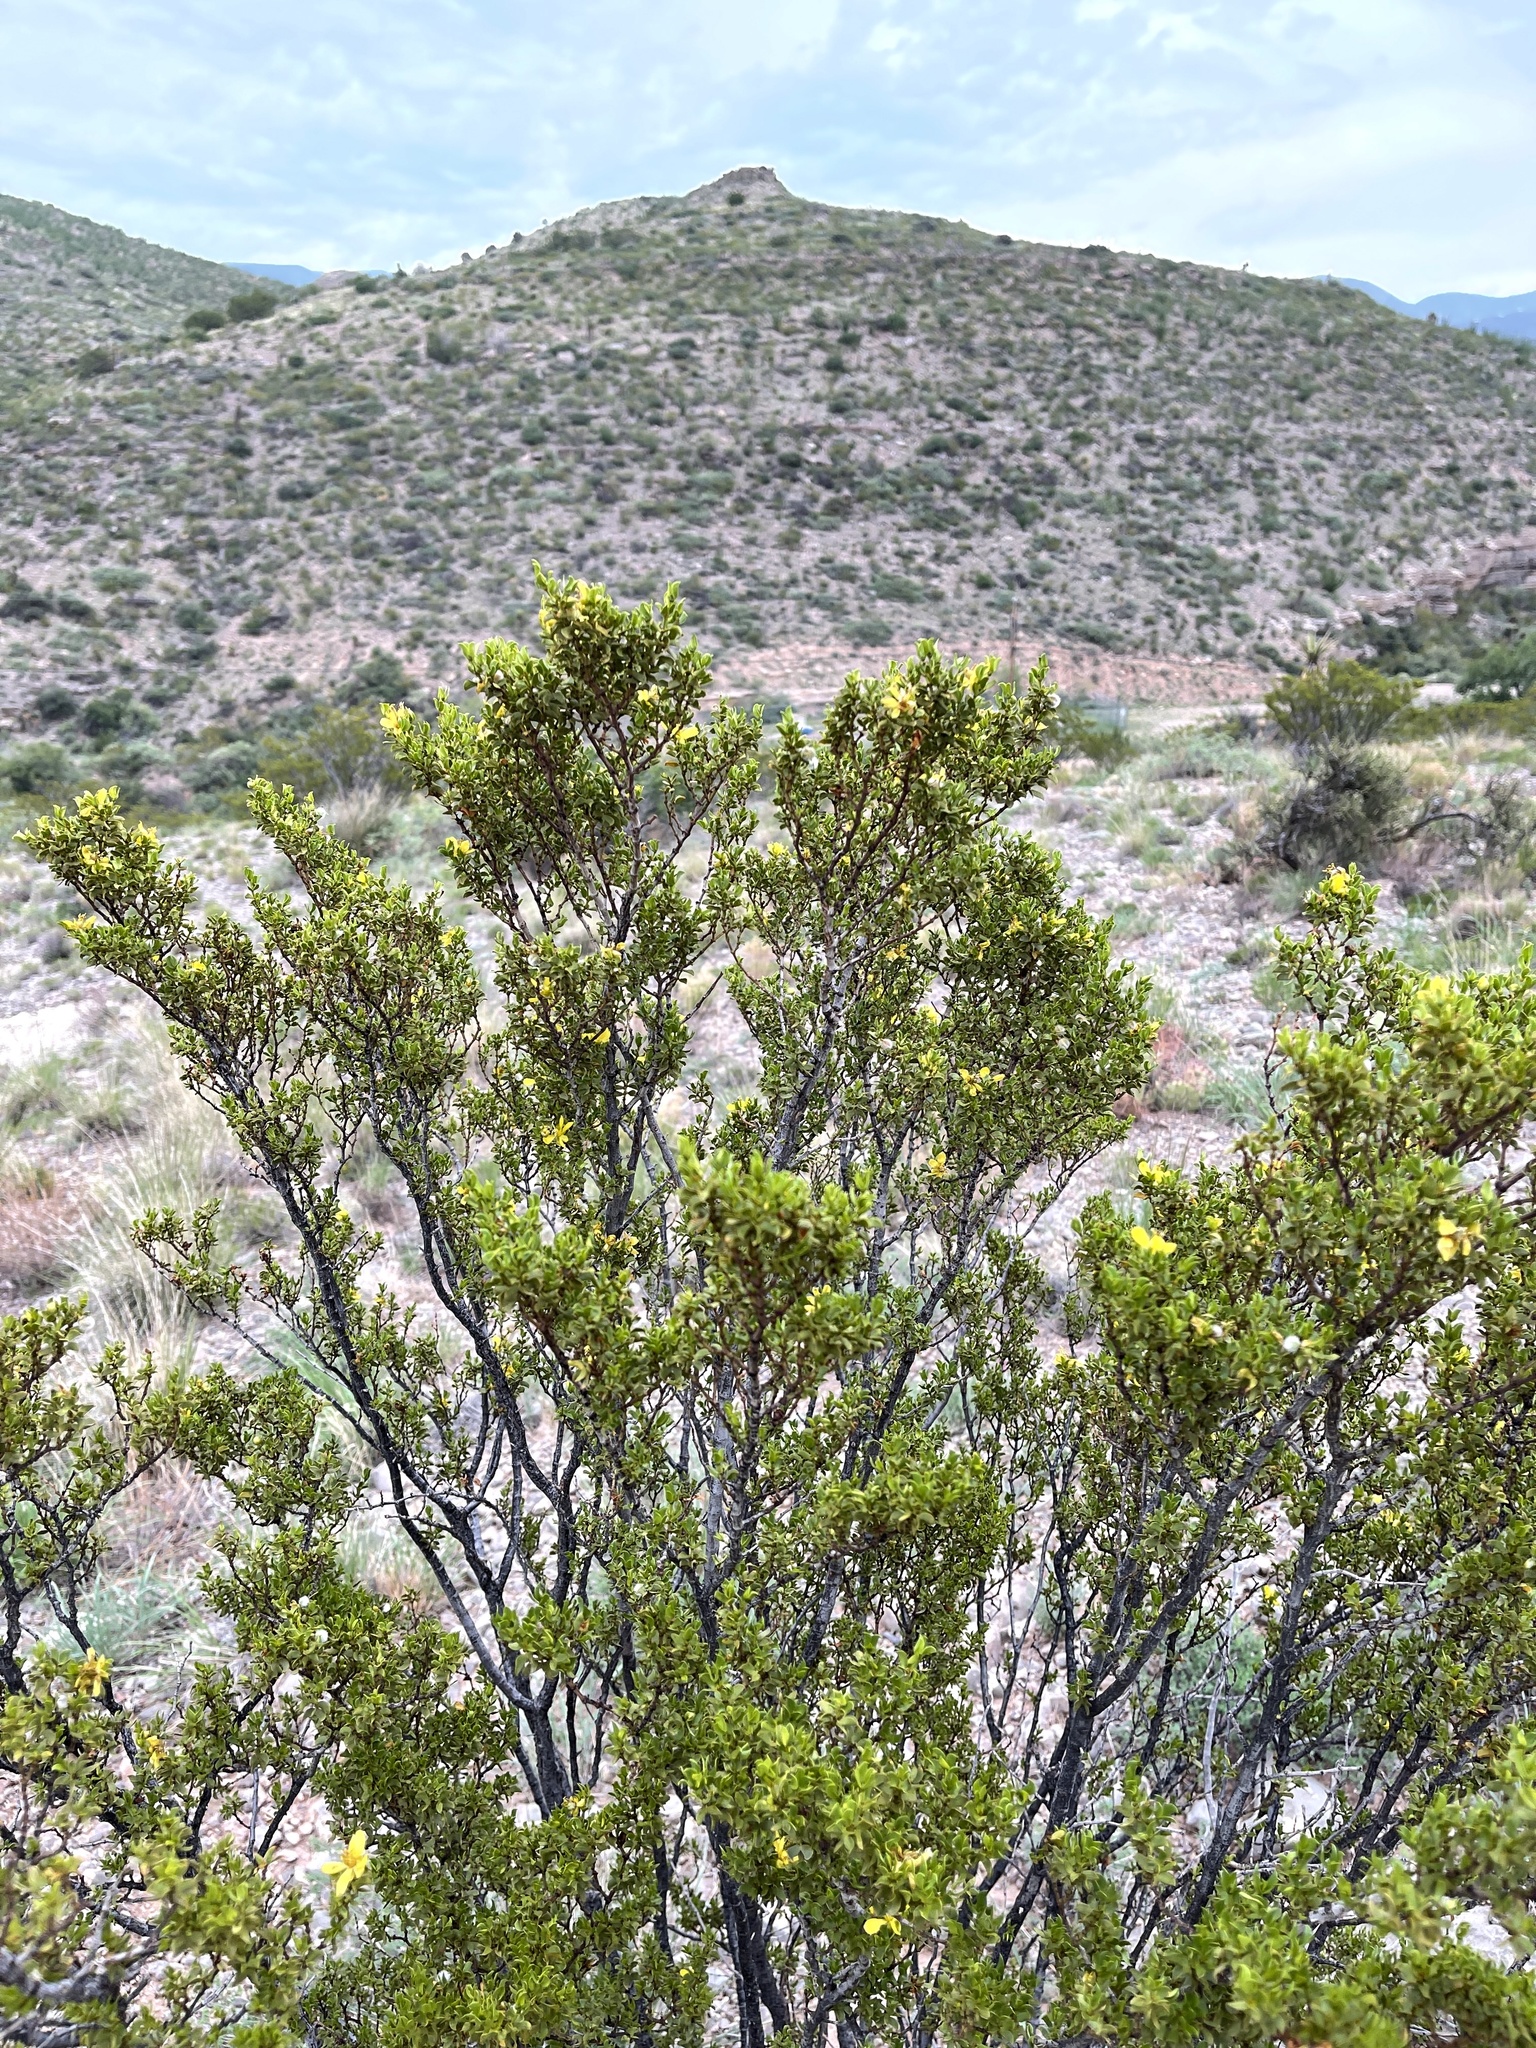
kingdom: Plantae
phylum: Tracheophyta
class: Magnoliopsida
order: Zygophyllales
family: Zygophyllaceae
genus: Larrea
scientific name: Larrea tridentata
